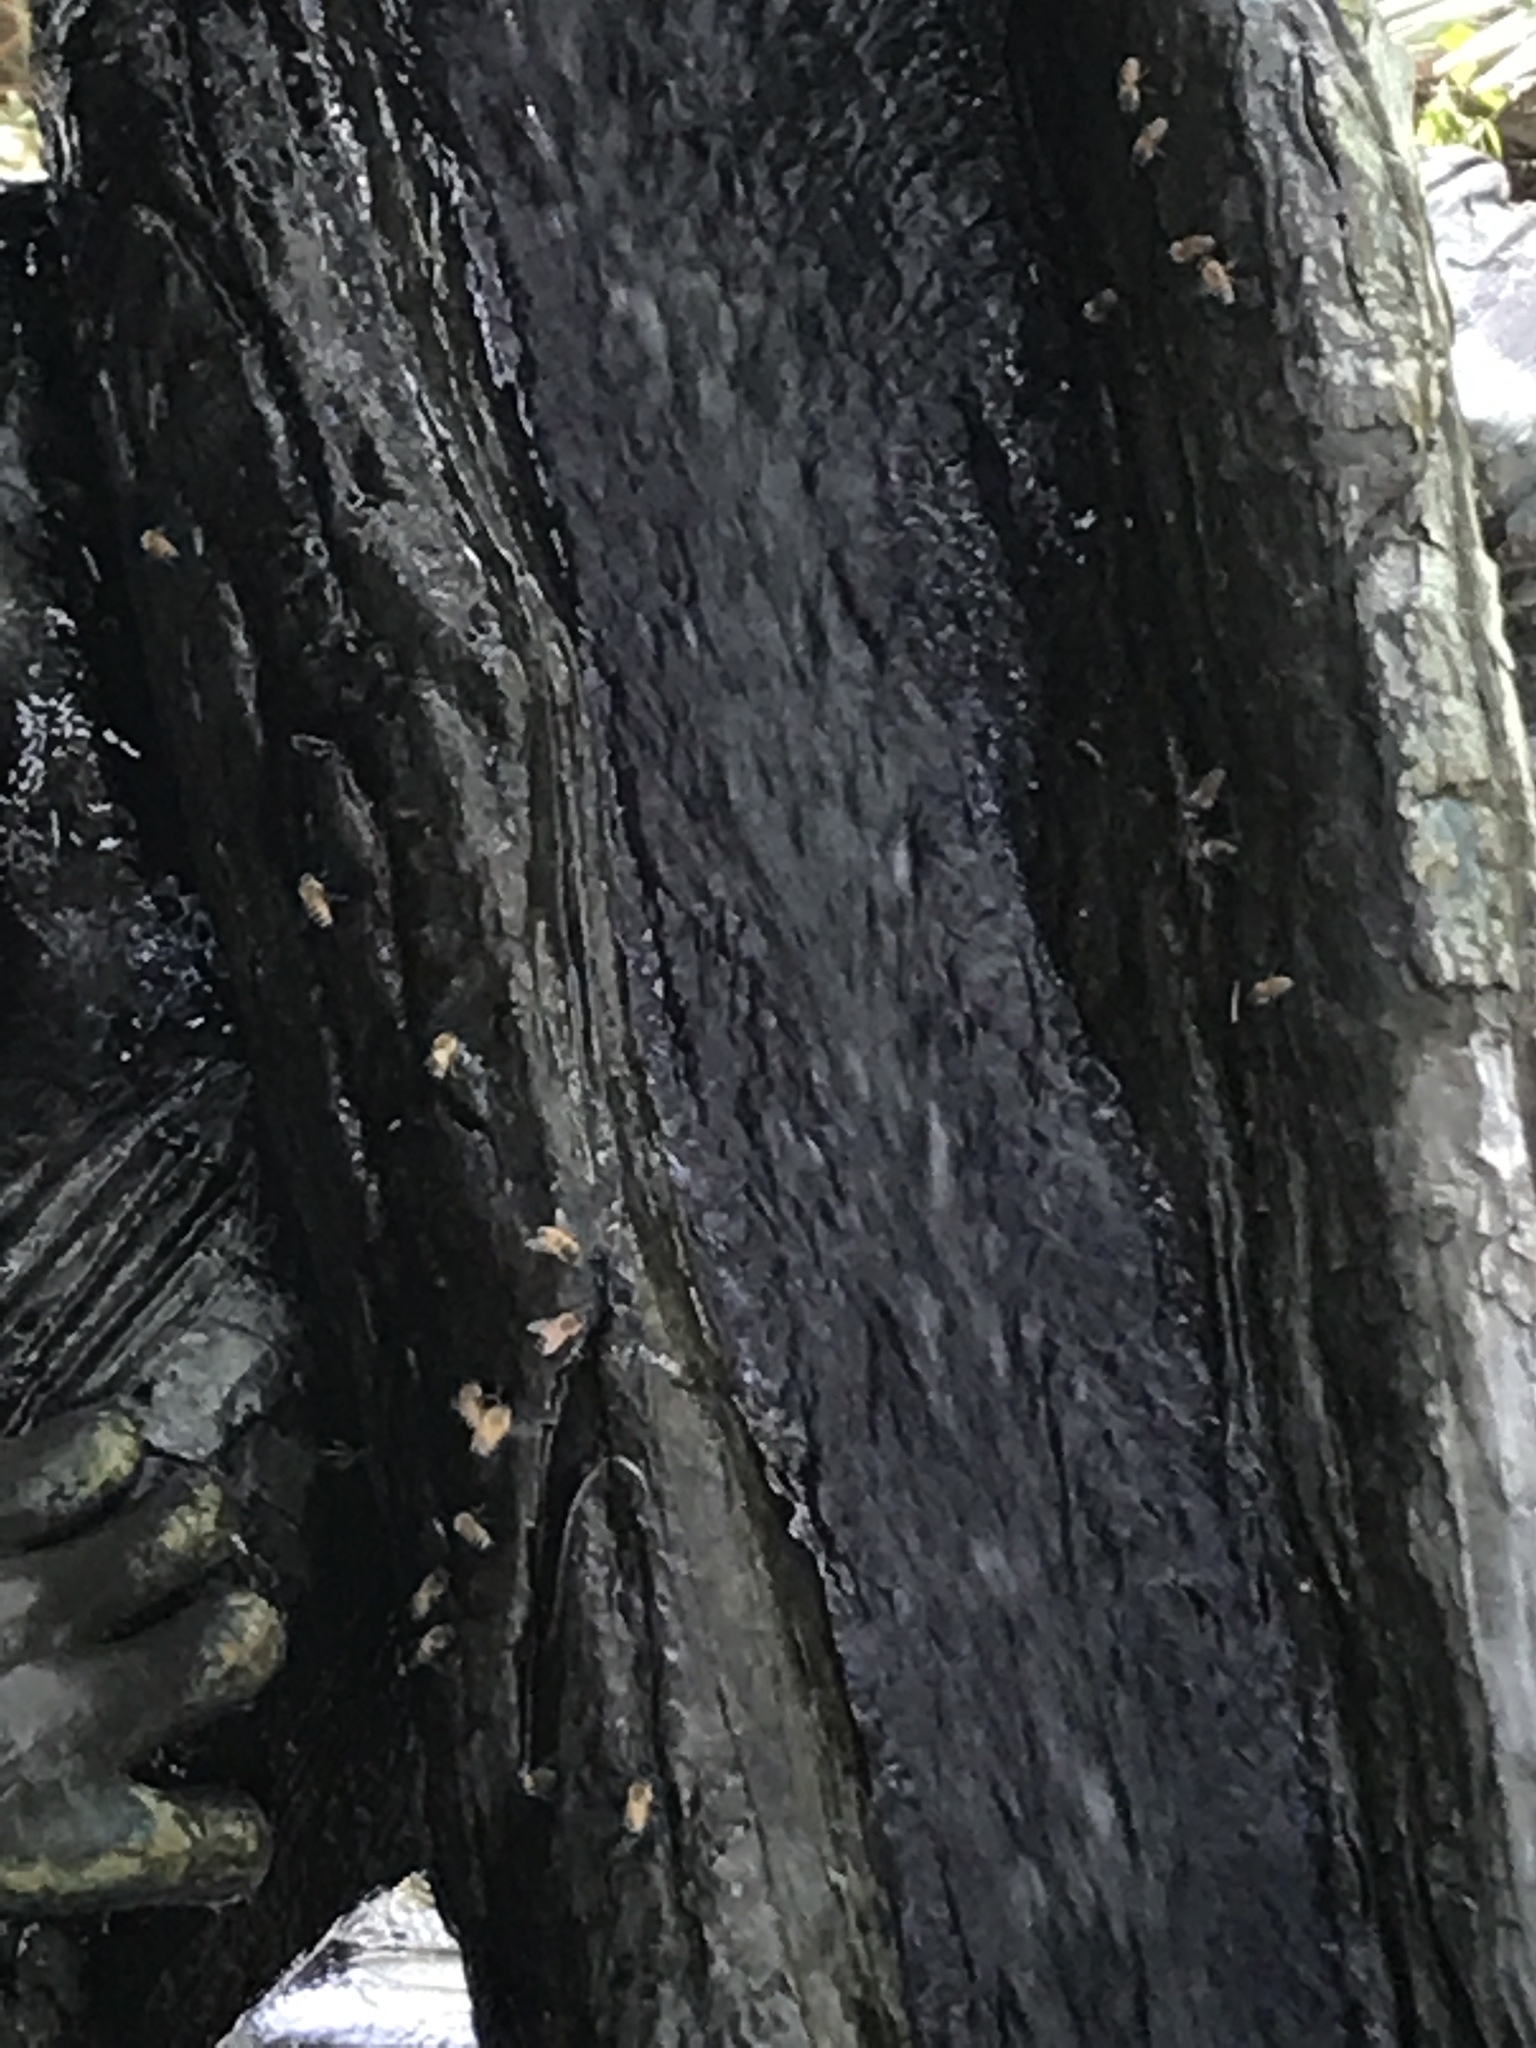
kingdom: Animalia
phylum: Arthropoda
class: Insecta
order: Hymenoptera
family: Apidae
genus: Apis
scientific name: Apis mellifera
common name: Honey bee
